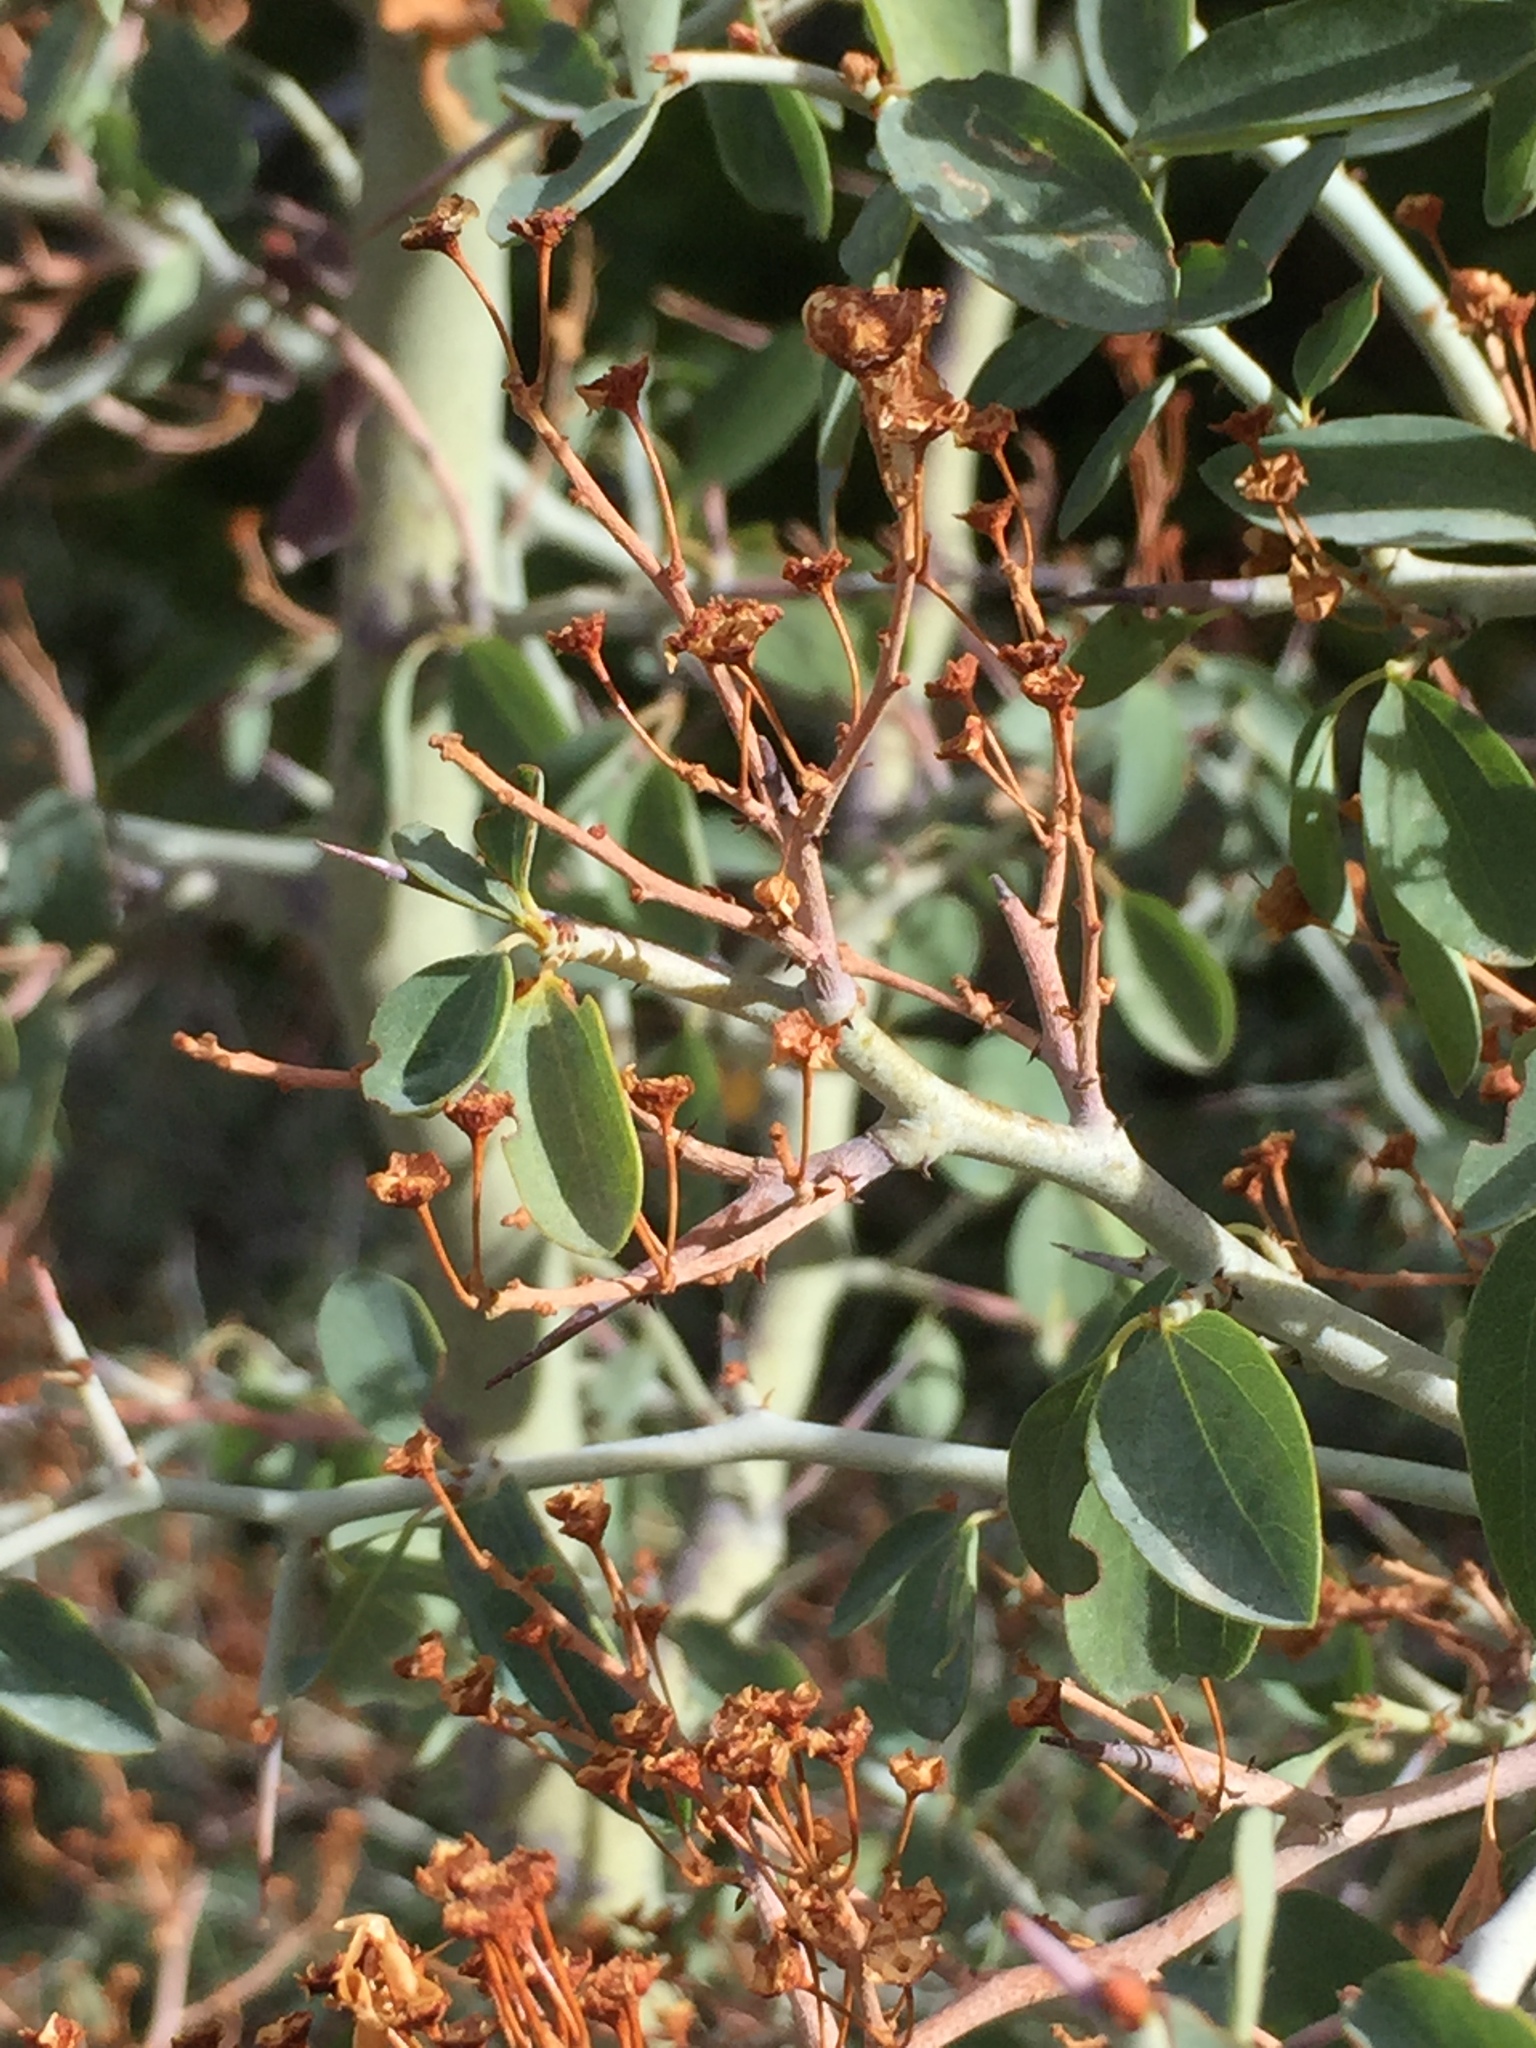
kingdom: Plantae
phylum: Tracheophyta
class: Magnoliopsida
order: Rosales
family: Rhamnaceae
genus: Ceanothus
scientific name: Ceanothus cordulatus
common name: Mountain whitethorn
